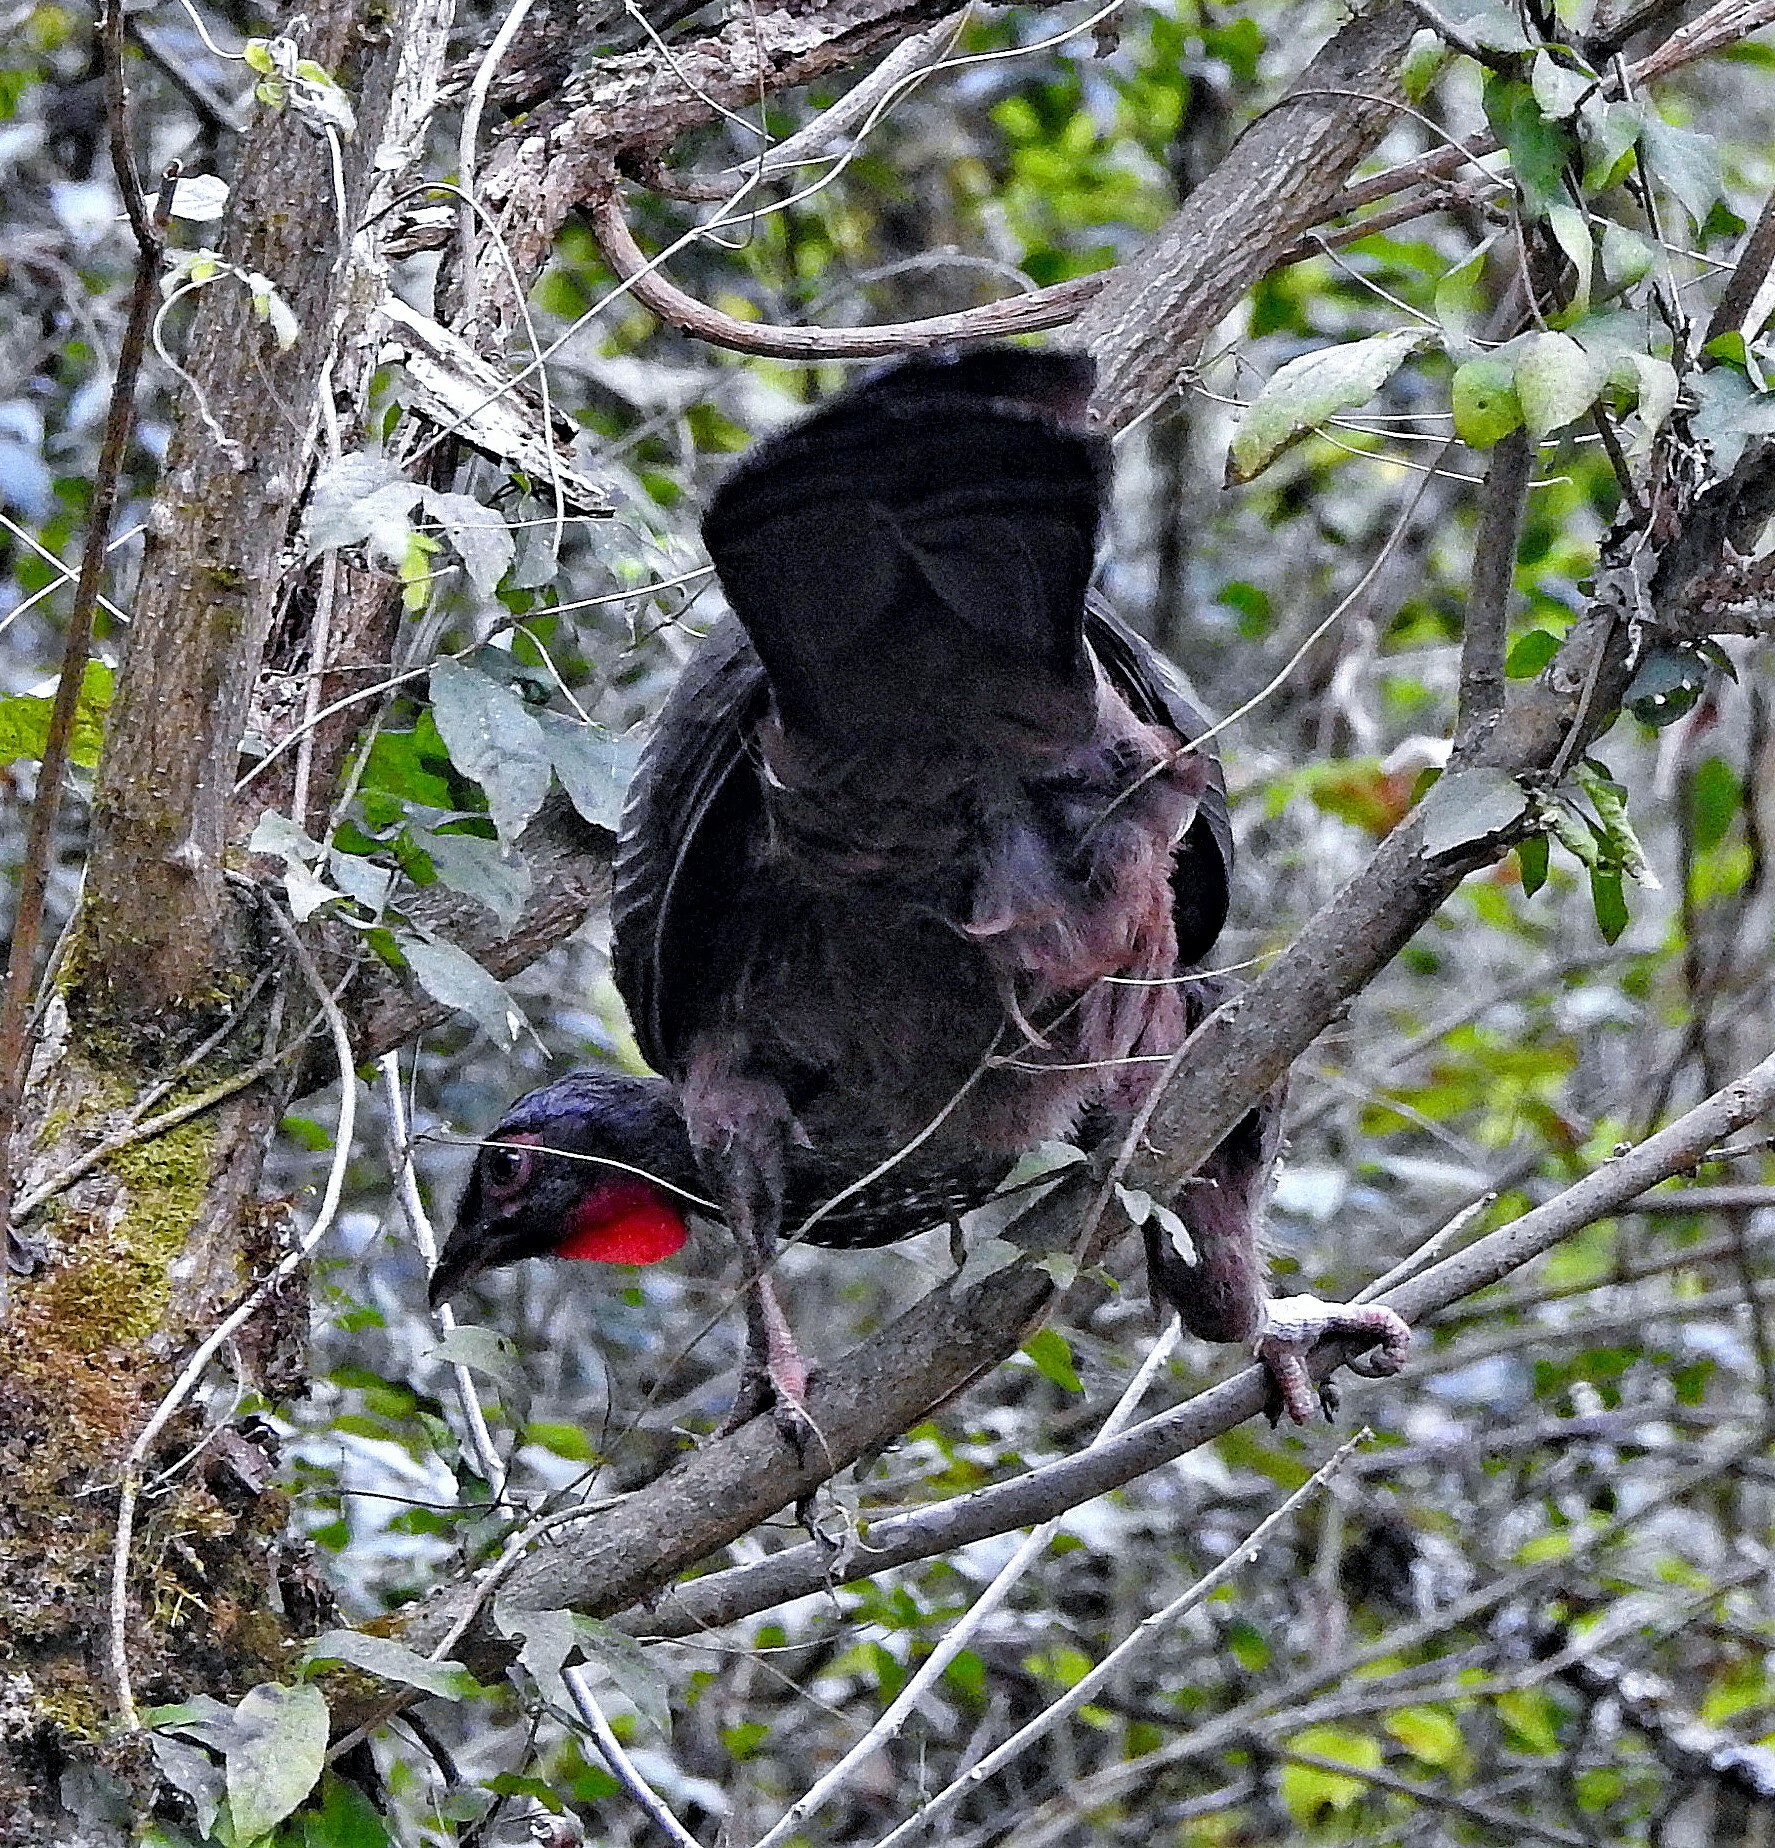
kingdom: Animalia
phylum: Chordata
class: Aves
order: Galliformes
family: Cracidae
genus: Penelope
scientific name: Penelope dabbenei
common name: Red-faced guan
